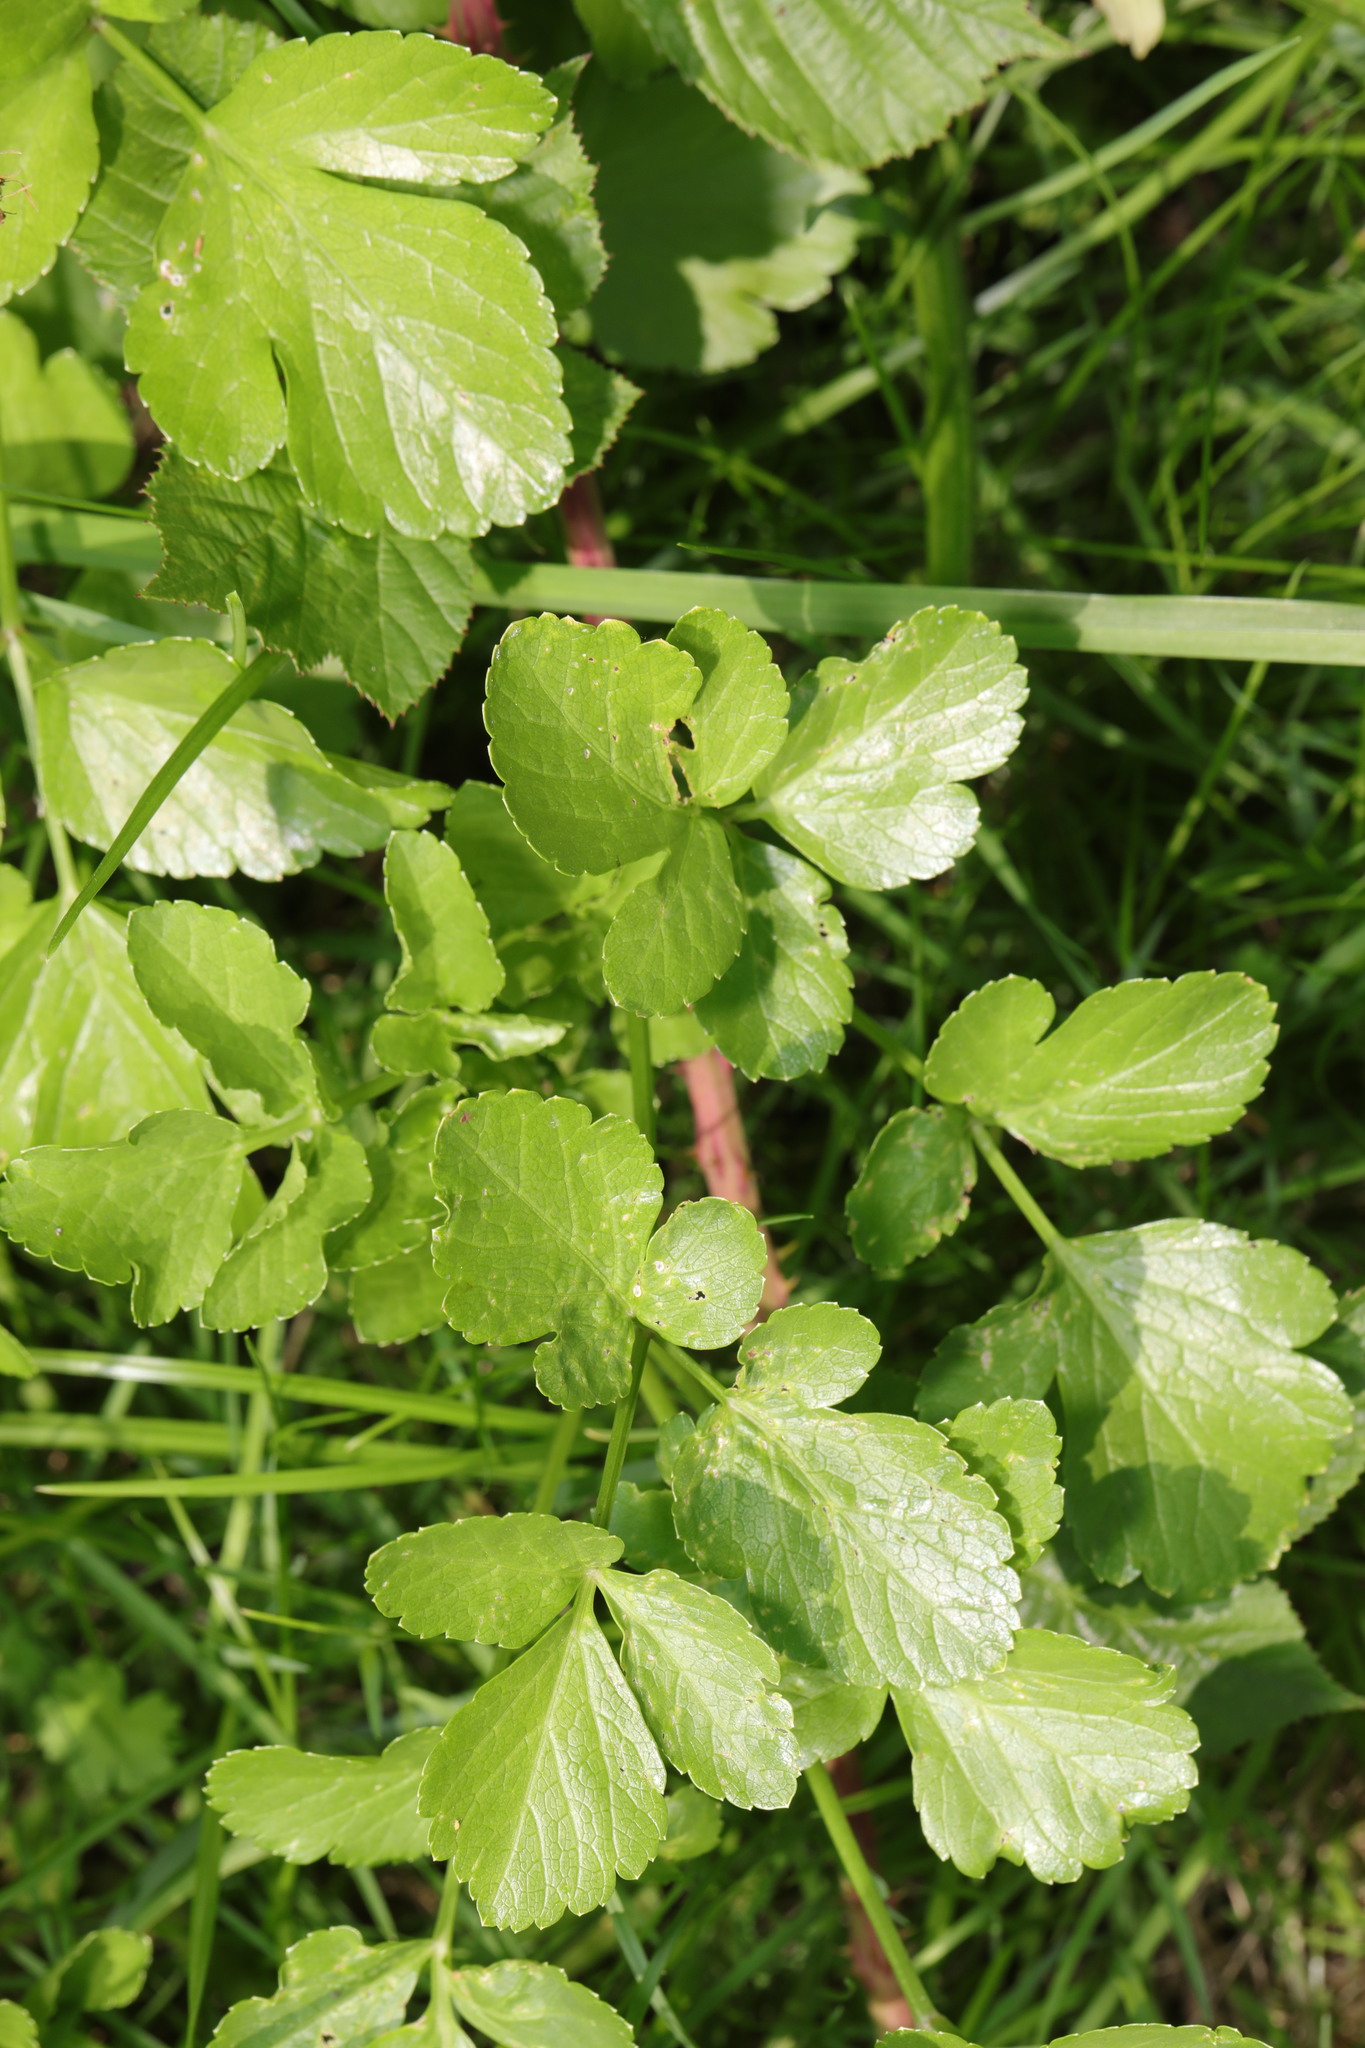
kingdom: Plantae
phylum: Tracheophyta
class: Magnoliopsida
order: Apiales
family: Apiaceae
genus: Smyrnium
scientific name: Smyrnium olusatrum
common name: Alexanders
